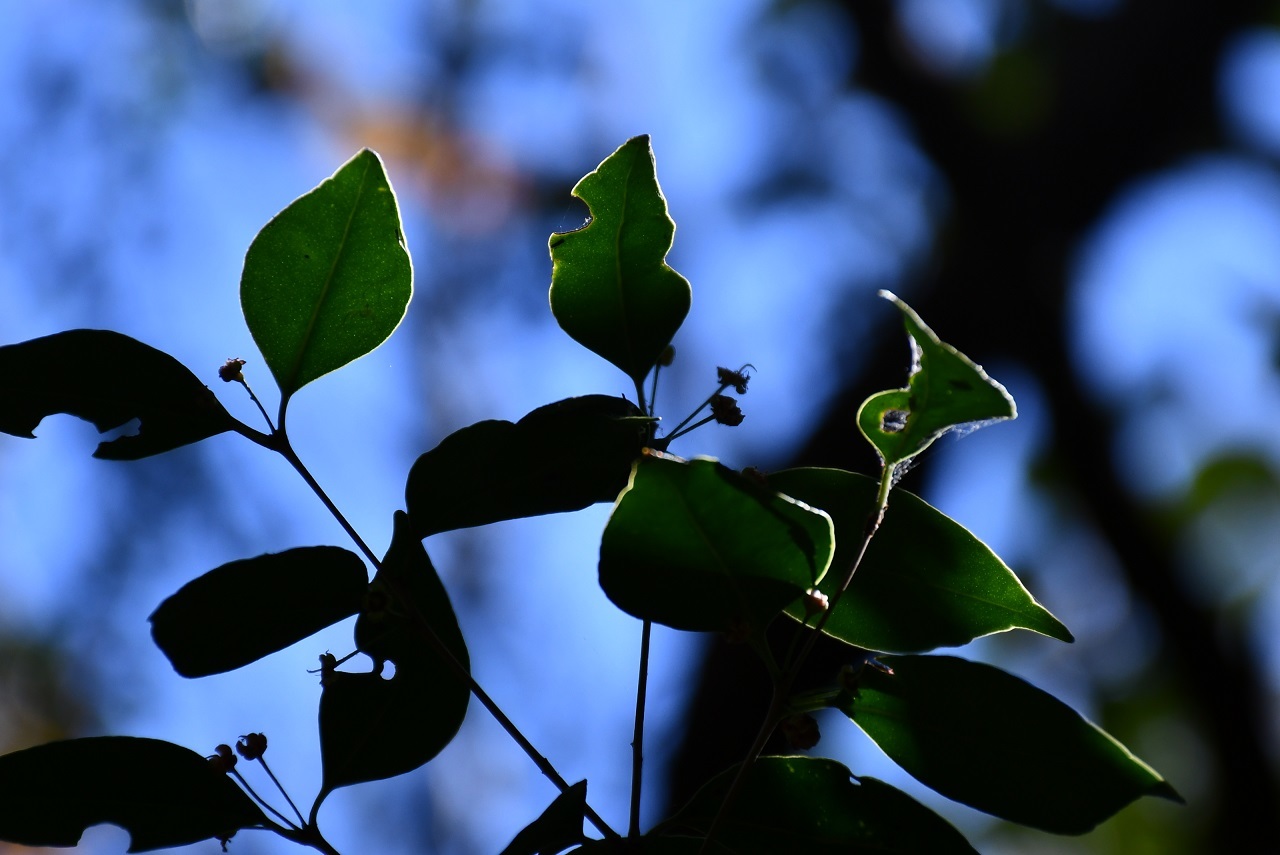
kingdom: Plantae
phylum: Tracheophyta
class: Magnoliopsida
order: Myrtales
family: Myrtaceae
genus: Eugenia
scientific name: Eugenia rhombea
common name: Pigeon berry
